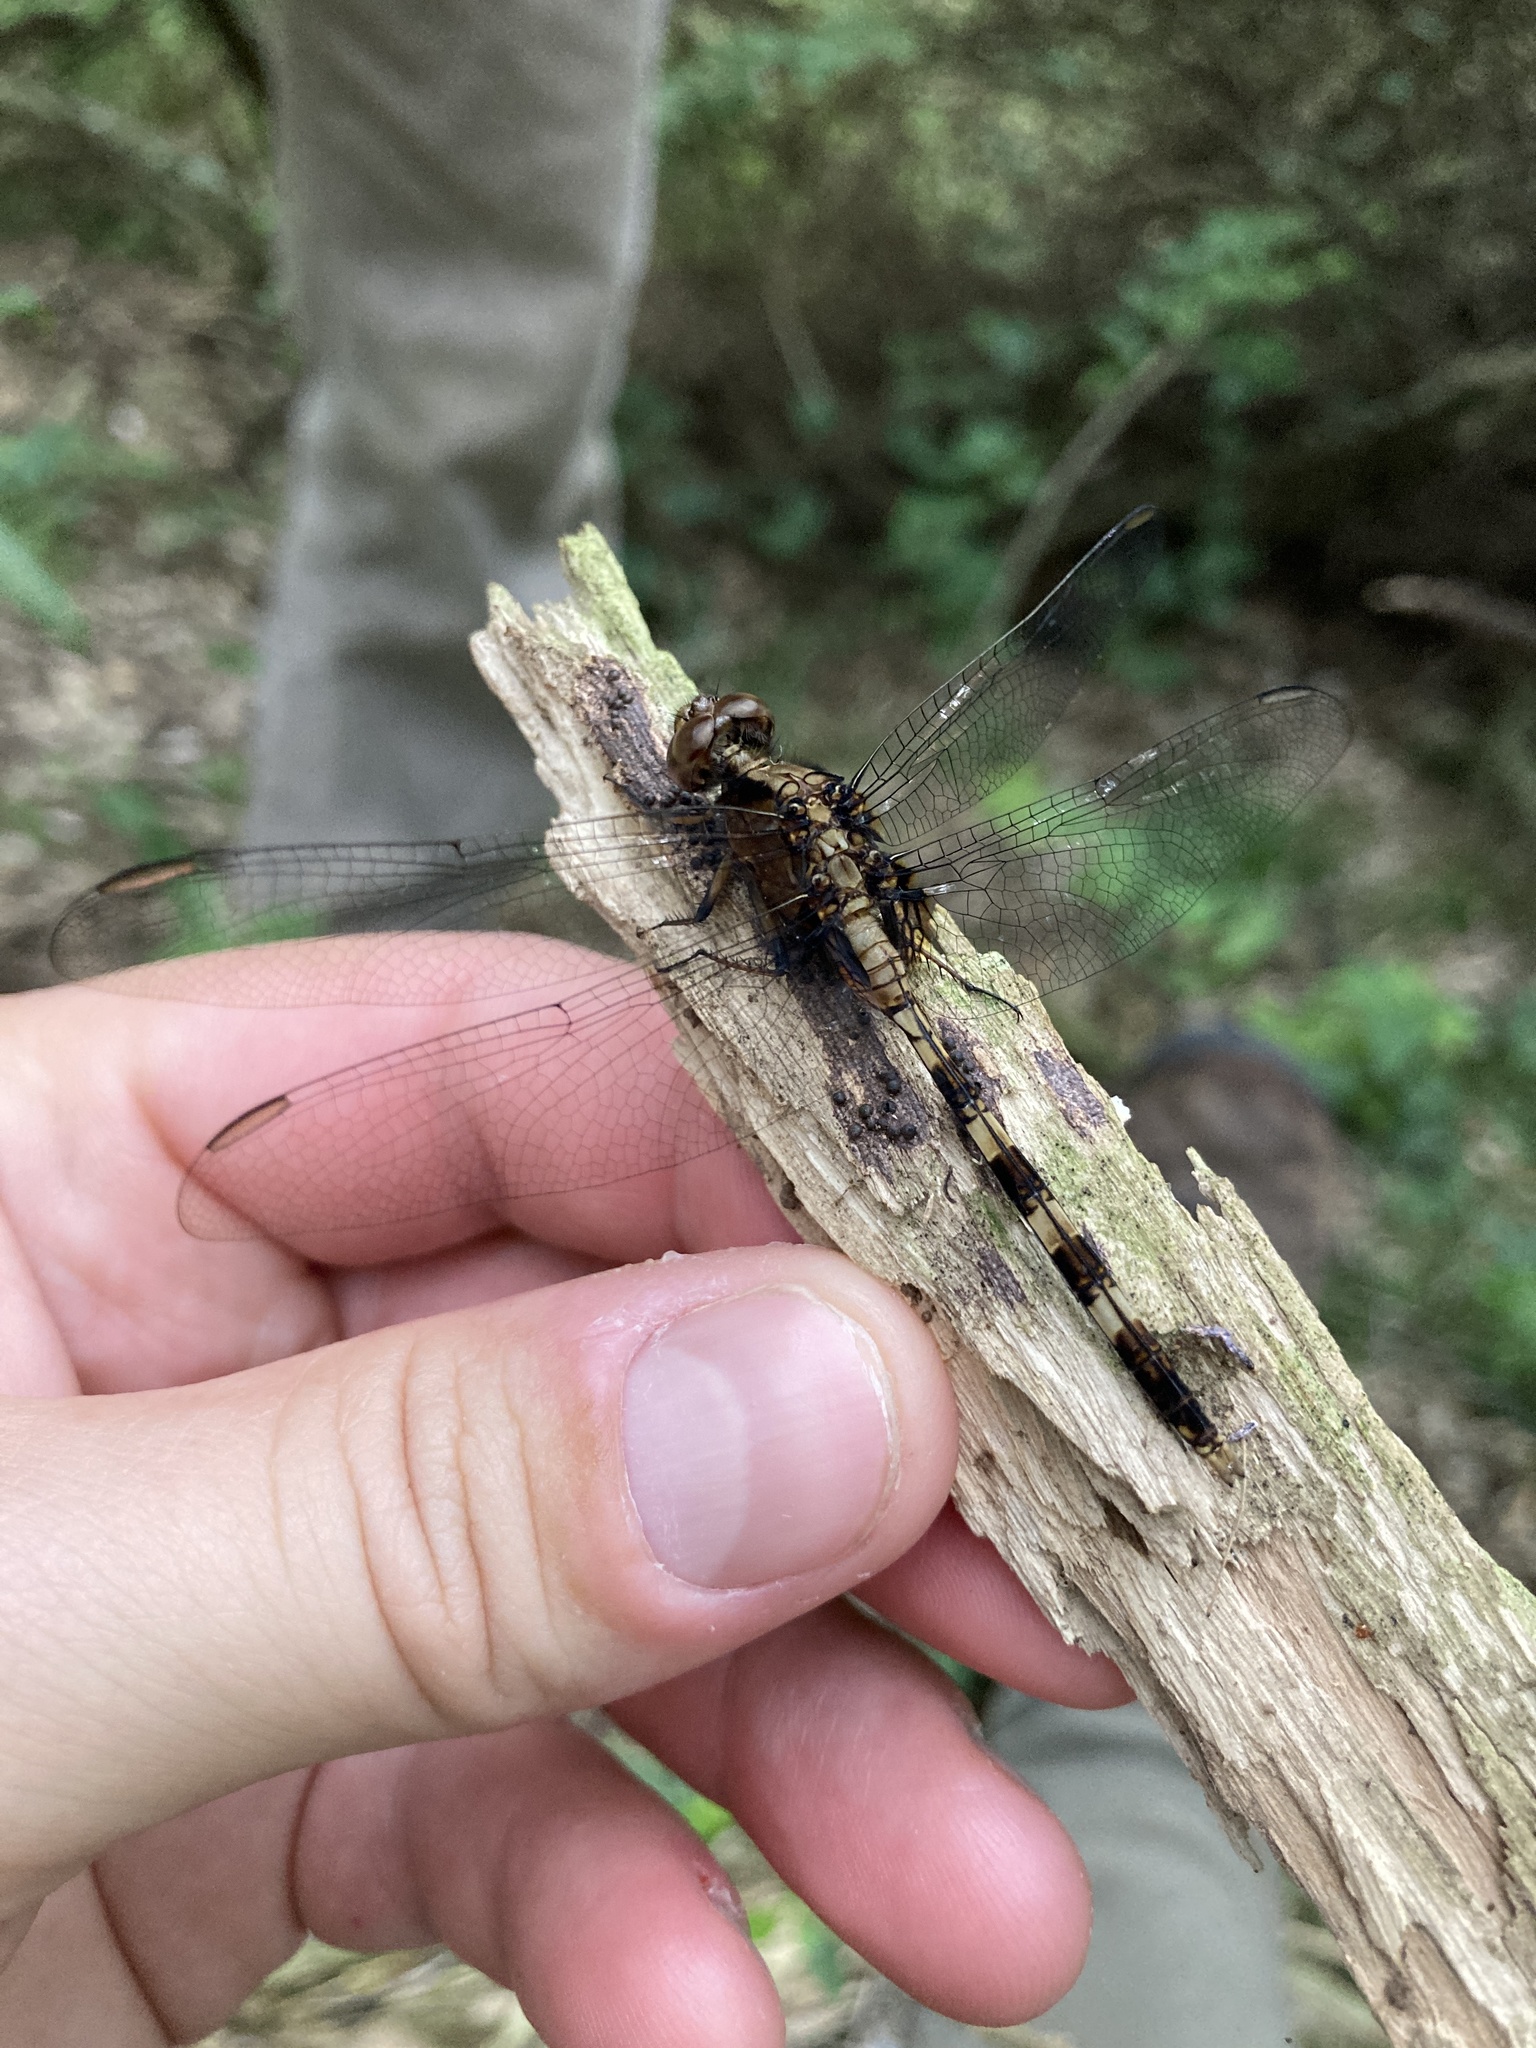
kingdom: Animalia
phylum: Arthropoda
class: Insecta
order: Odonata
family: Libellulidae
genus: Erythemis
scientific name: Erythemis plebeja
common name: Pin-tailed pondhawk
